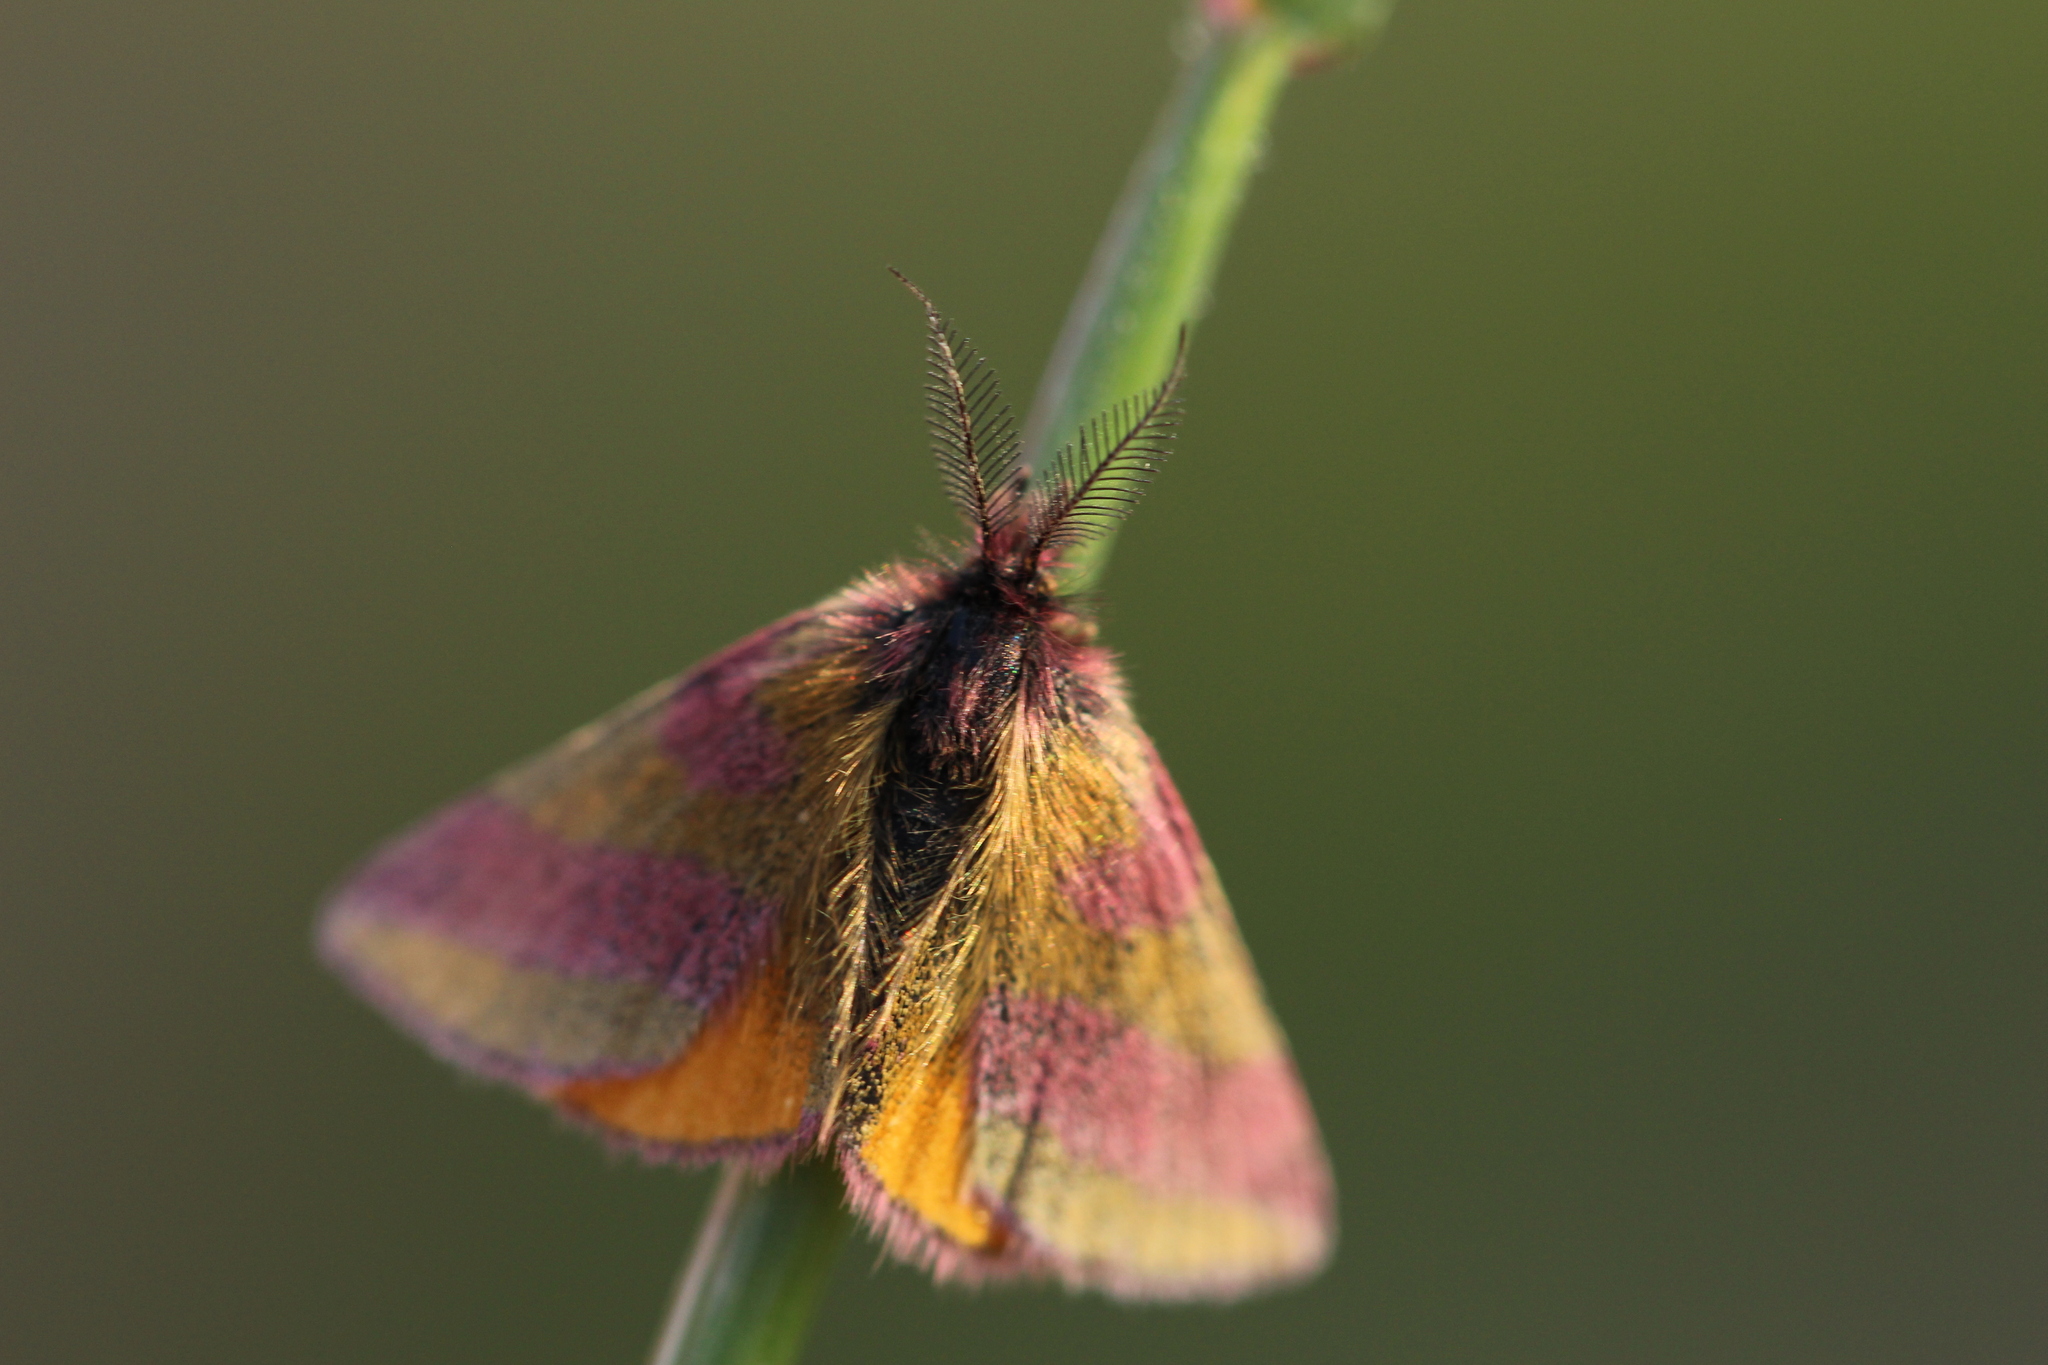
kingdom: Animalia
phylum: Arthropoda
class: Insecta
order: Lepidoptera
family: Geometridae
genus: Lythria
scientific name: Lythria cruentaria
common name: Purple-barred yellow
